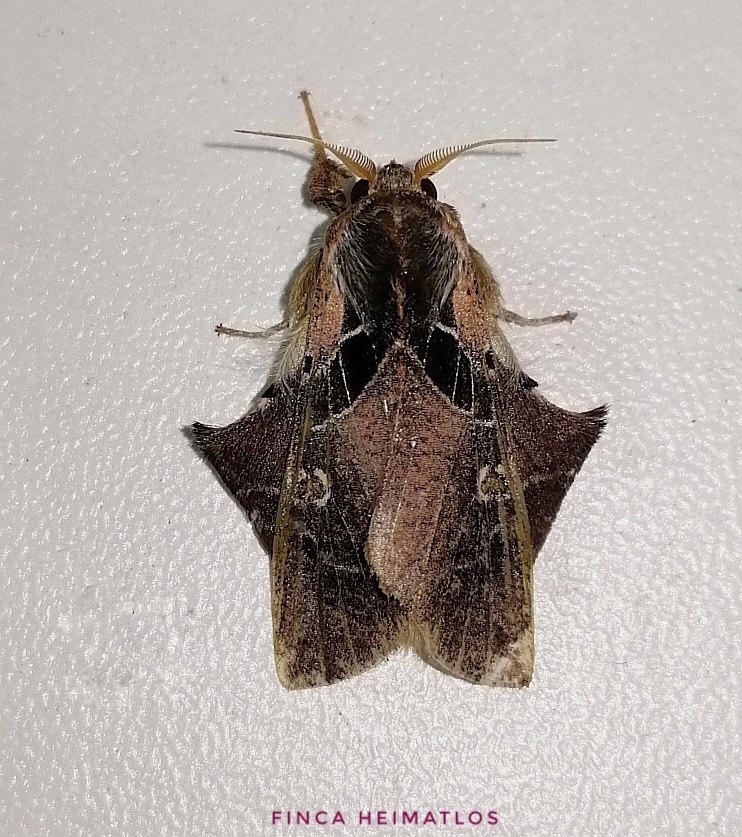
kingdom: Animalia
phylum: Arthropoda
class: Insecta
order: Lepidoptera
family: Erebidae
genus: Desmoloma
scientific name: Desmoloma signata
